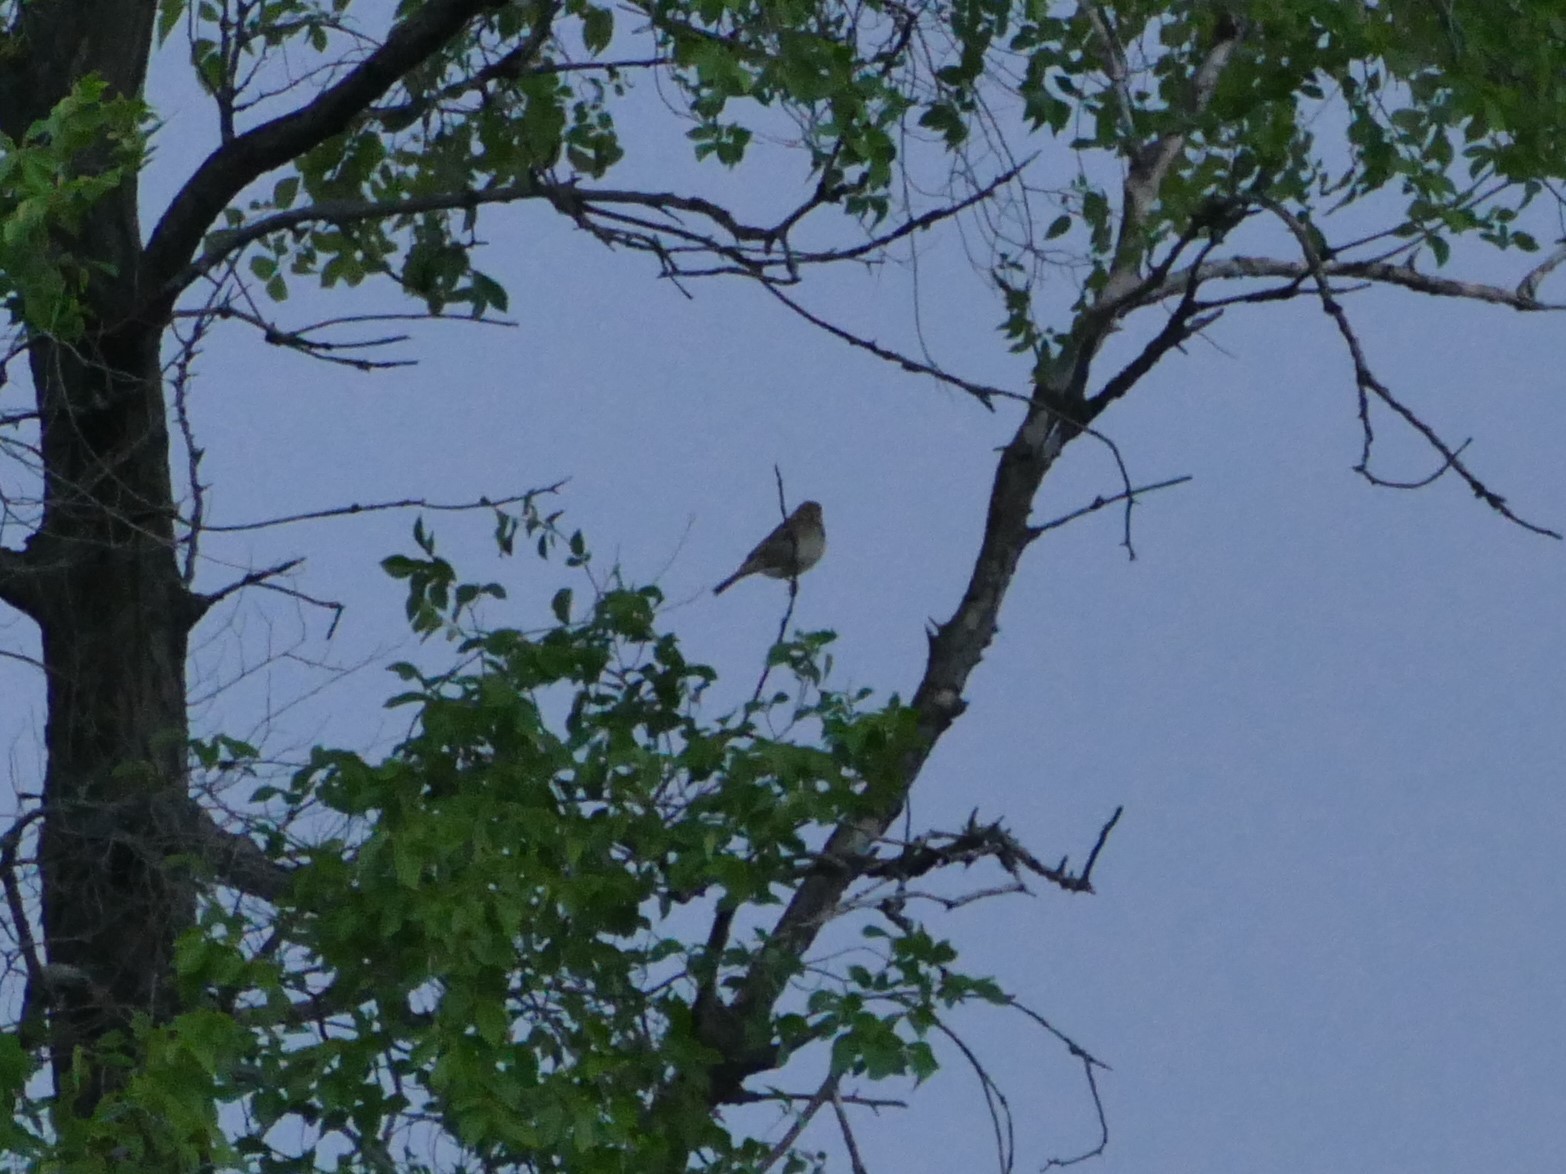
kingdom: Animalia
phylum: Chordata
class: Aves
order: Passeriformes
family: Emberizidae
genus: Emberiza
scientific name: Emberiza calandra
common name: Corn bunting
